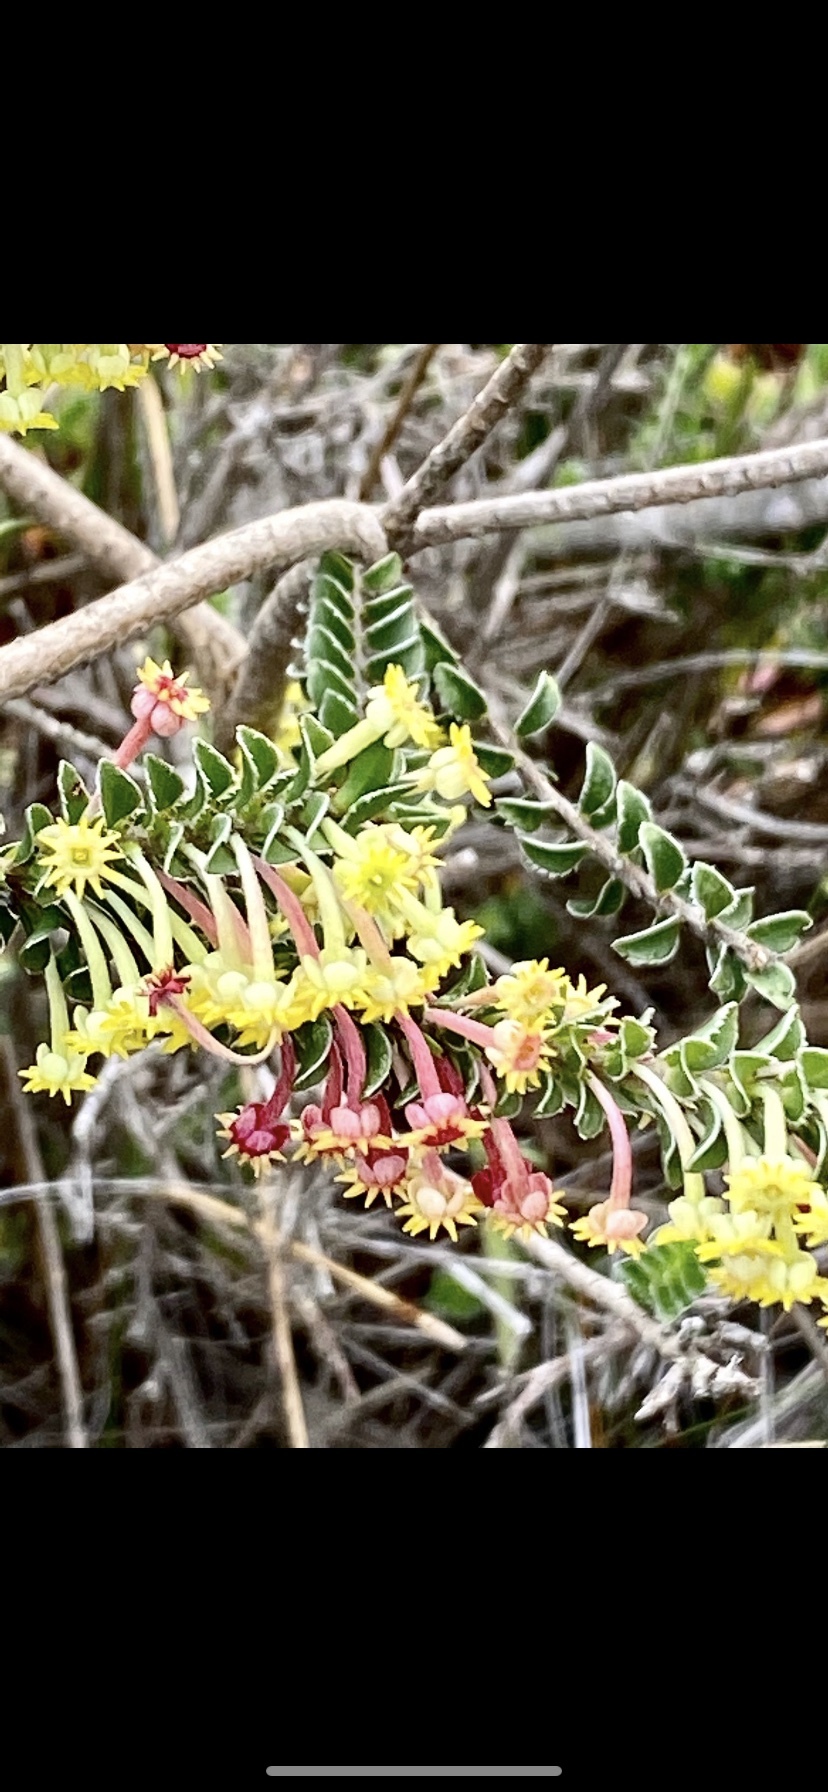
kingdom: Plantae
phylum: Tracheophyta
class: Magnoliopsida
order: Malvales
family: Thymelaeaceae
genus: Struthiola
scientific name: Struthiola argentea
